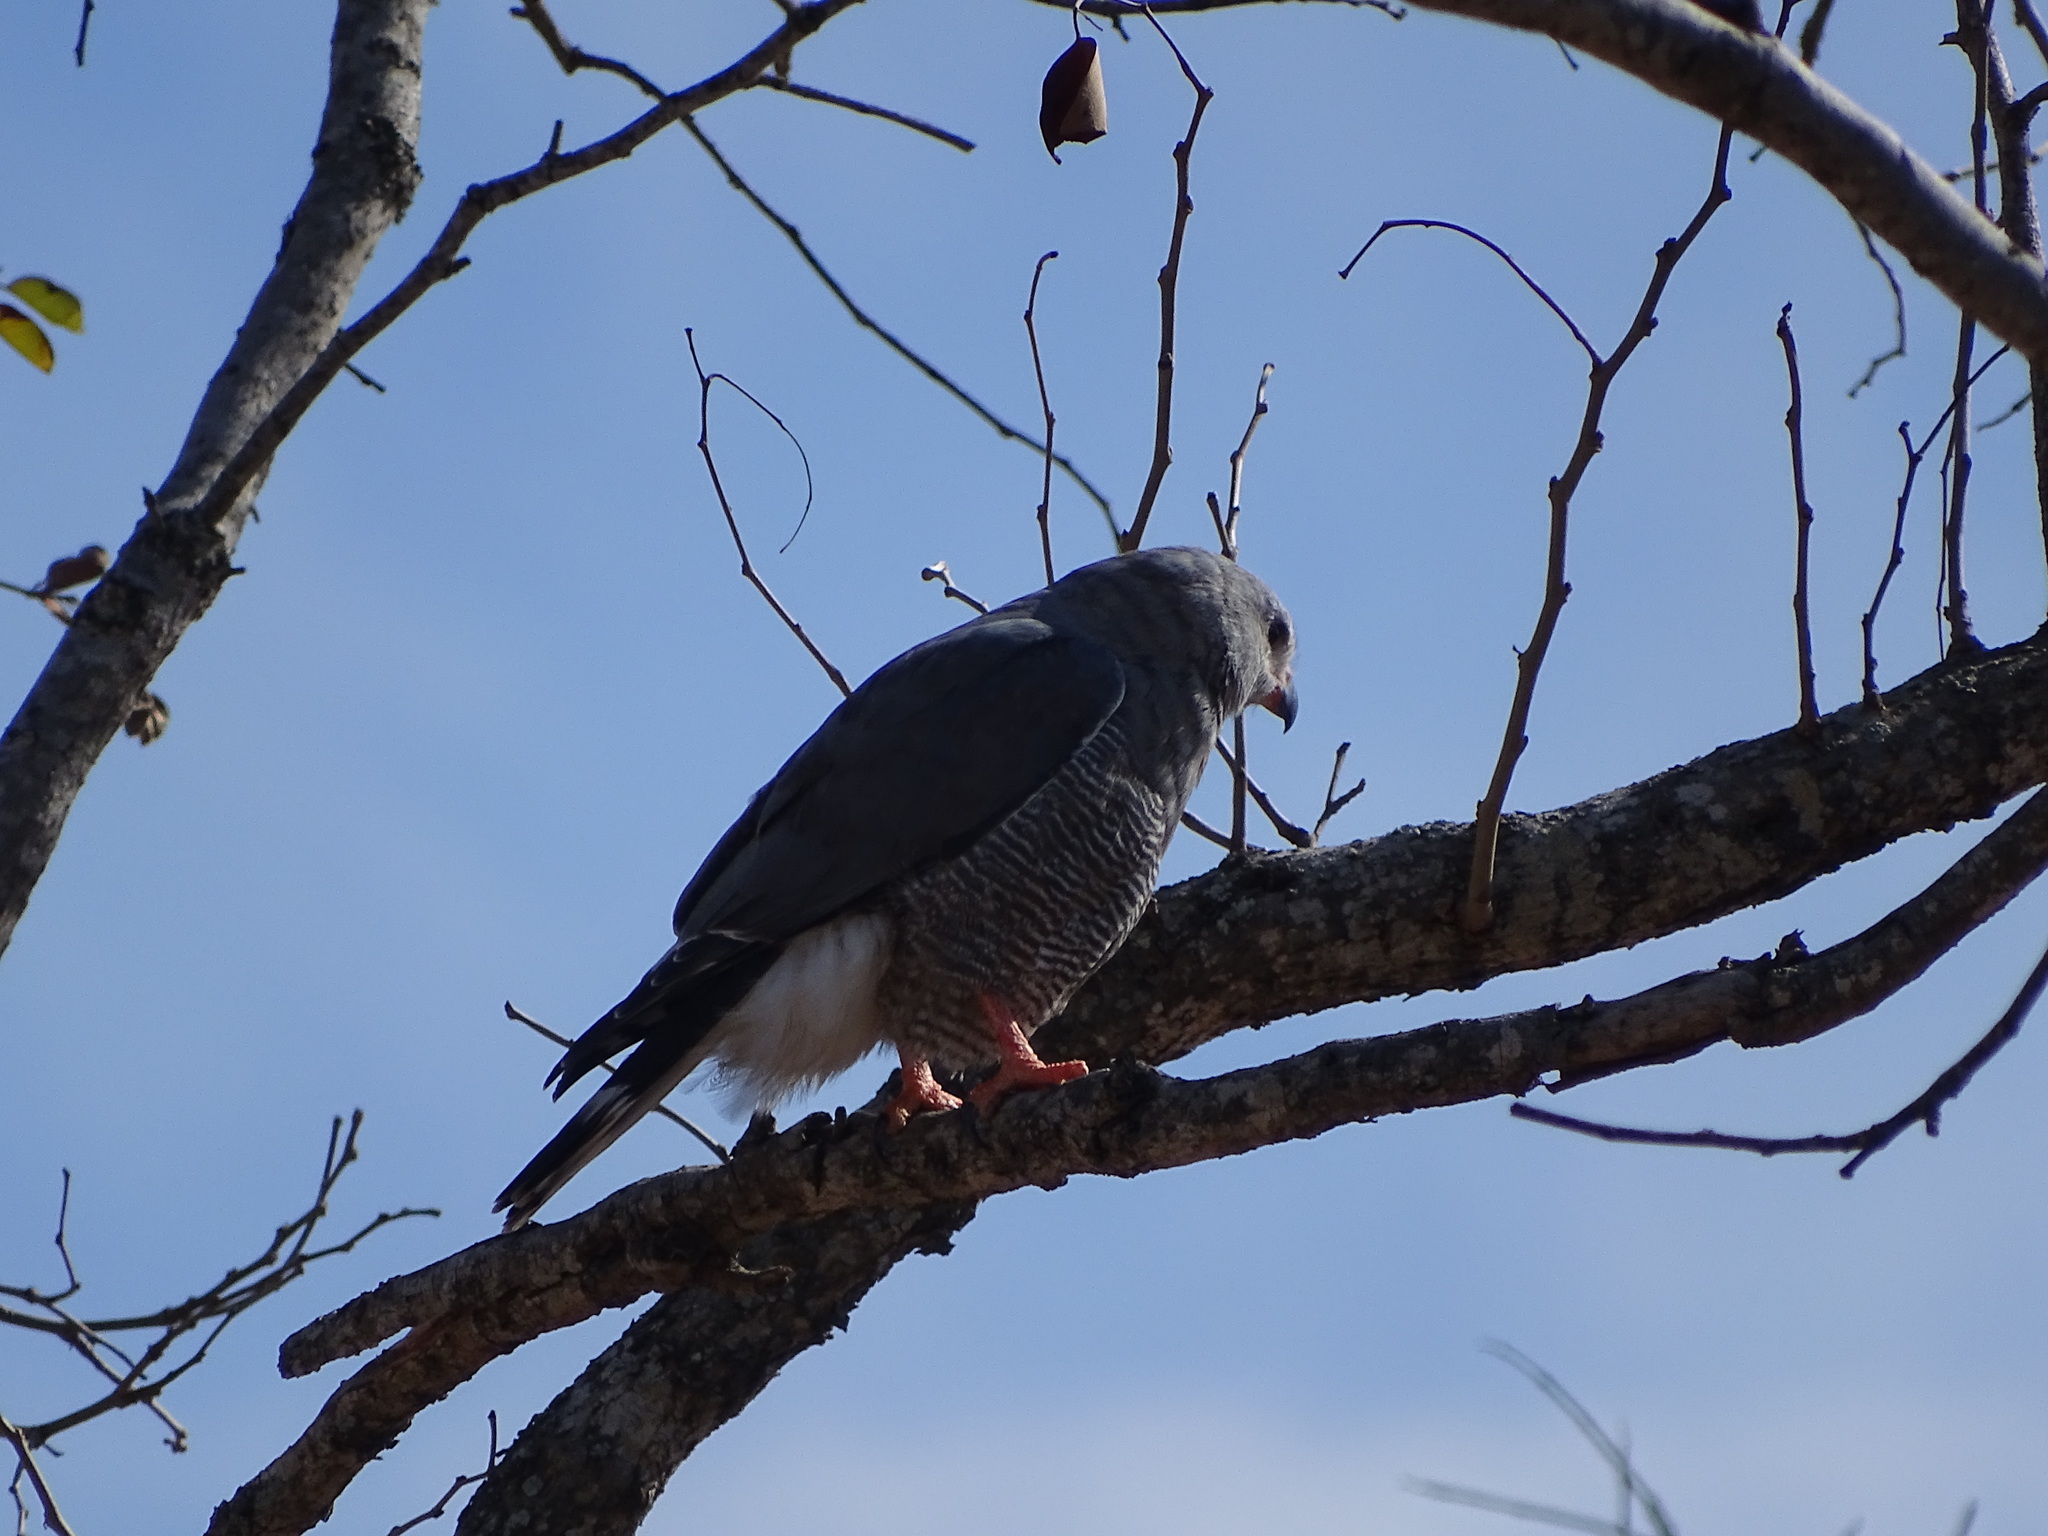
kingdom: Animalia
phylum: Chordata
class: Aves
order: Accipitriformes
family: Accipitridae
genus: Kaupifalco
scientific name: Kaupifalco monogrammicus
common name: Lizard buzzard
